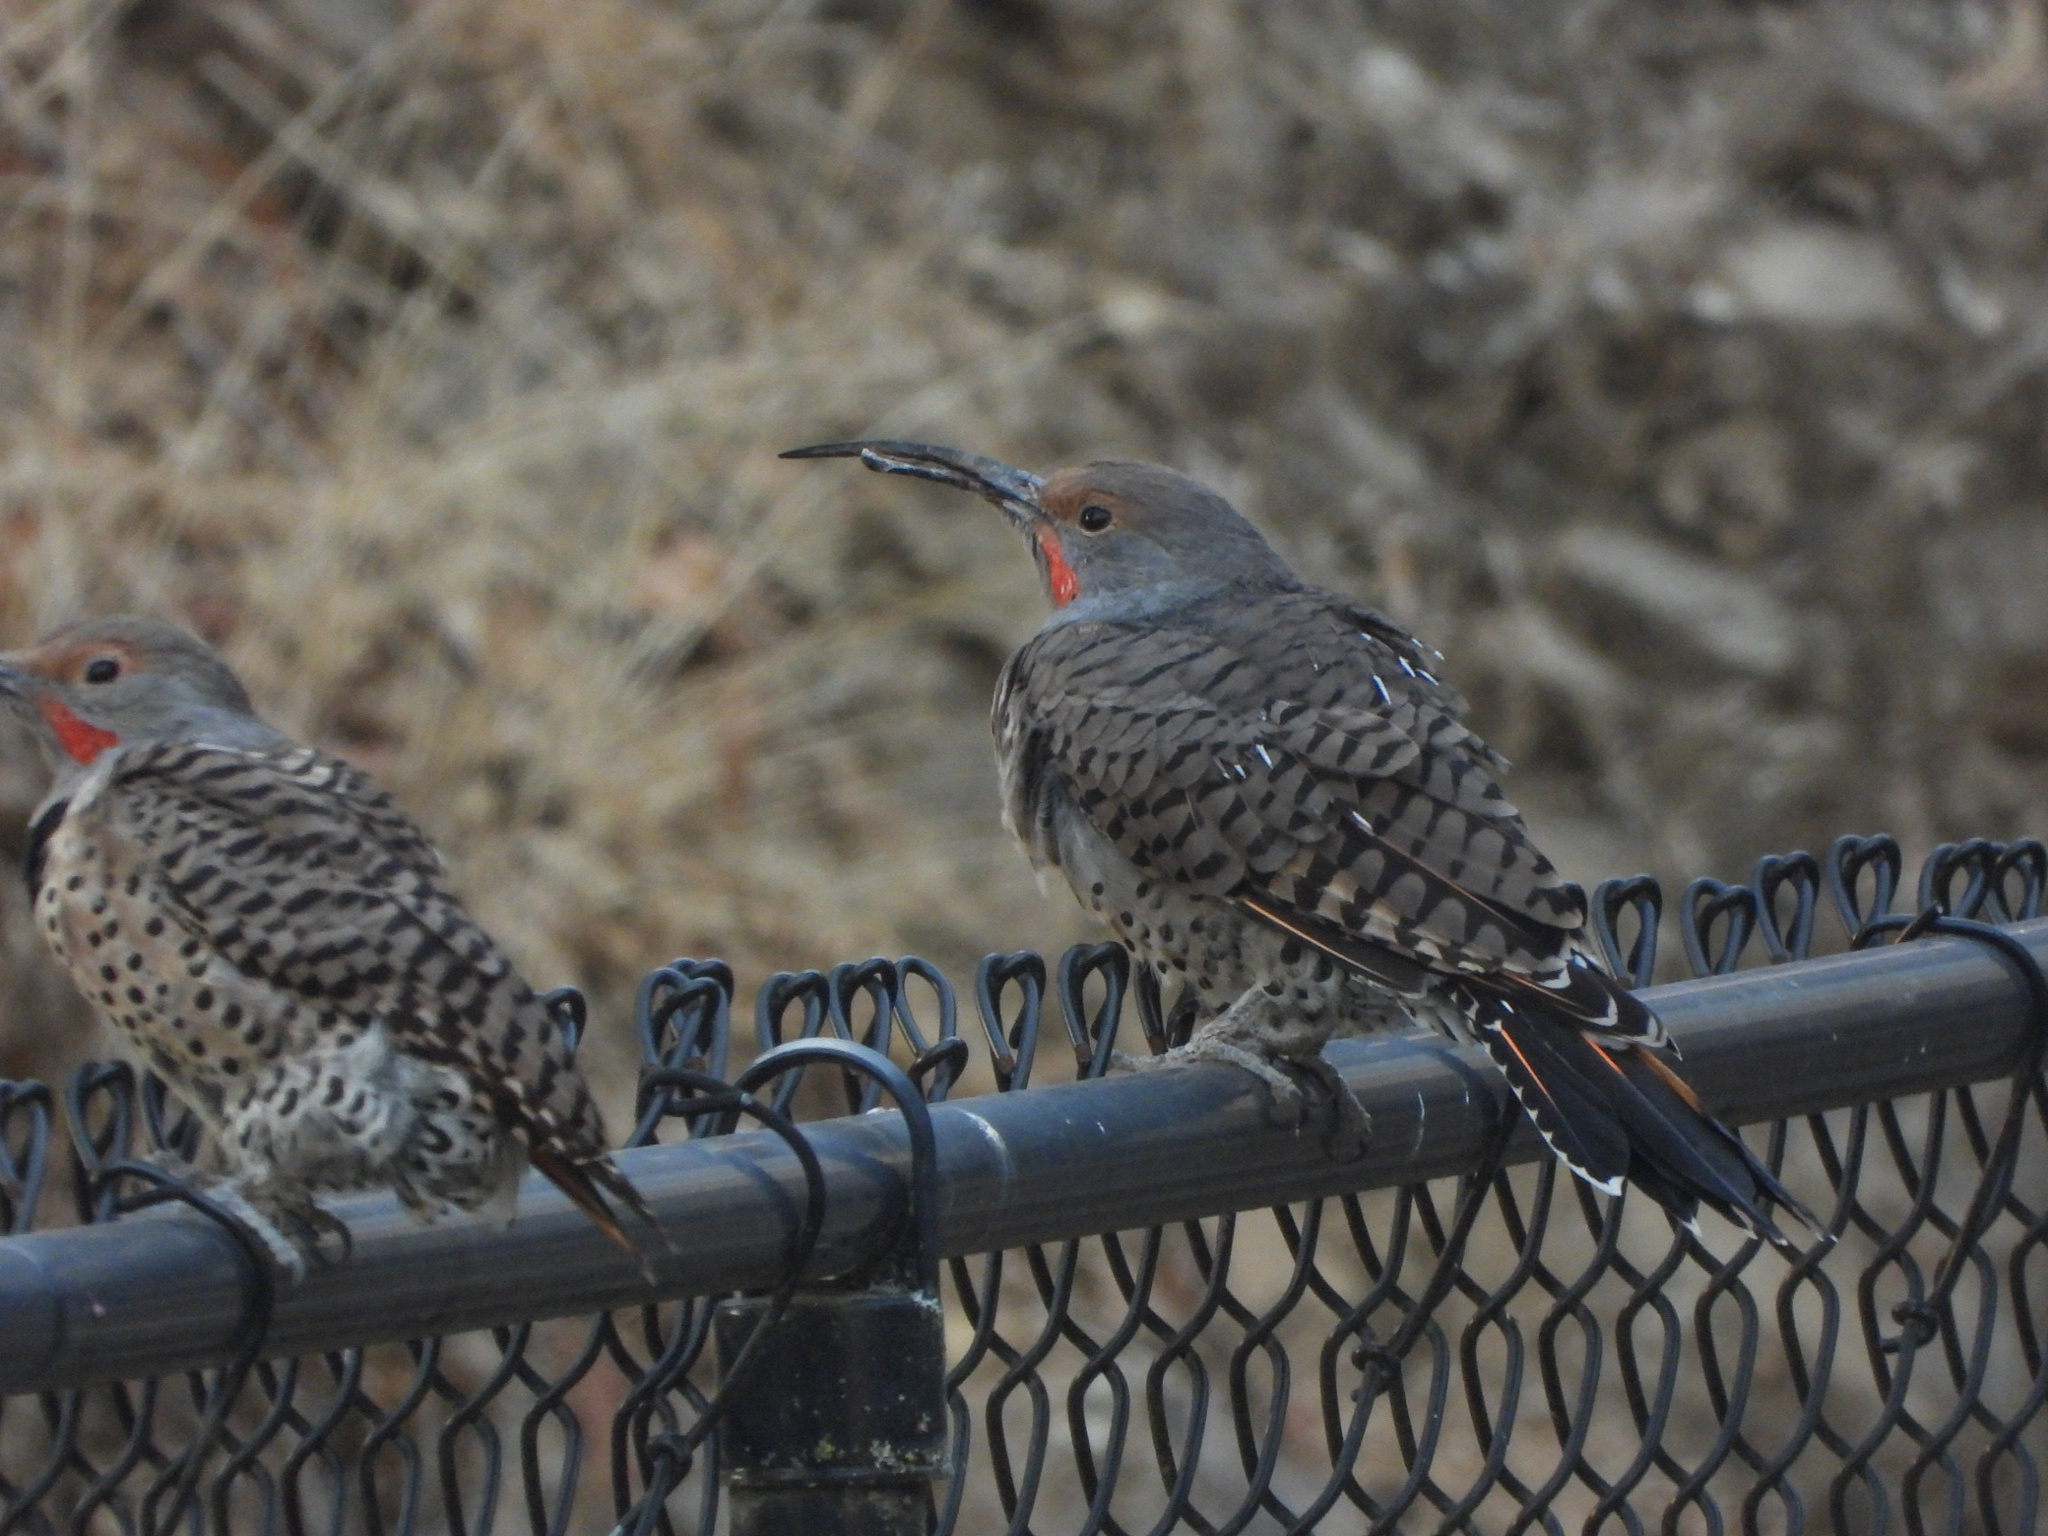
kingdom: Animalia
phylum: Chordata
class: Aves
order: Piciformes
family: Picidae
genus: Colaptes
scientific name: Colaptes auratus
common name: Northern flicker
